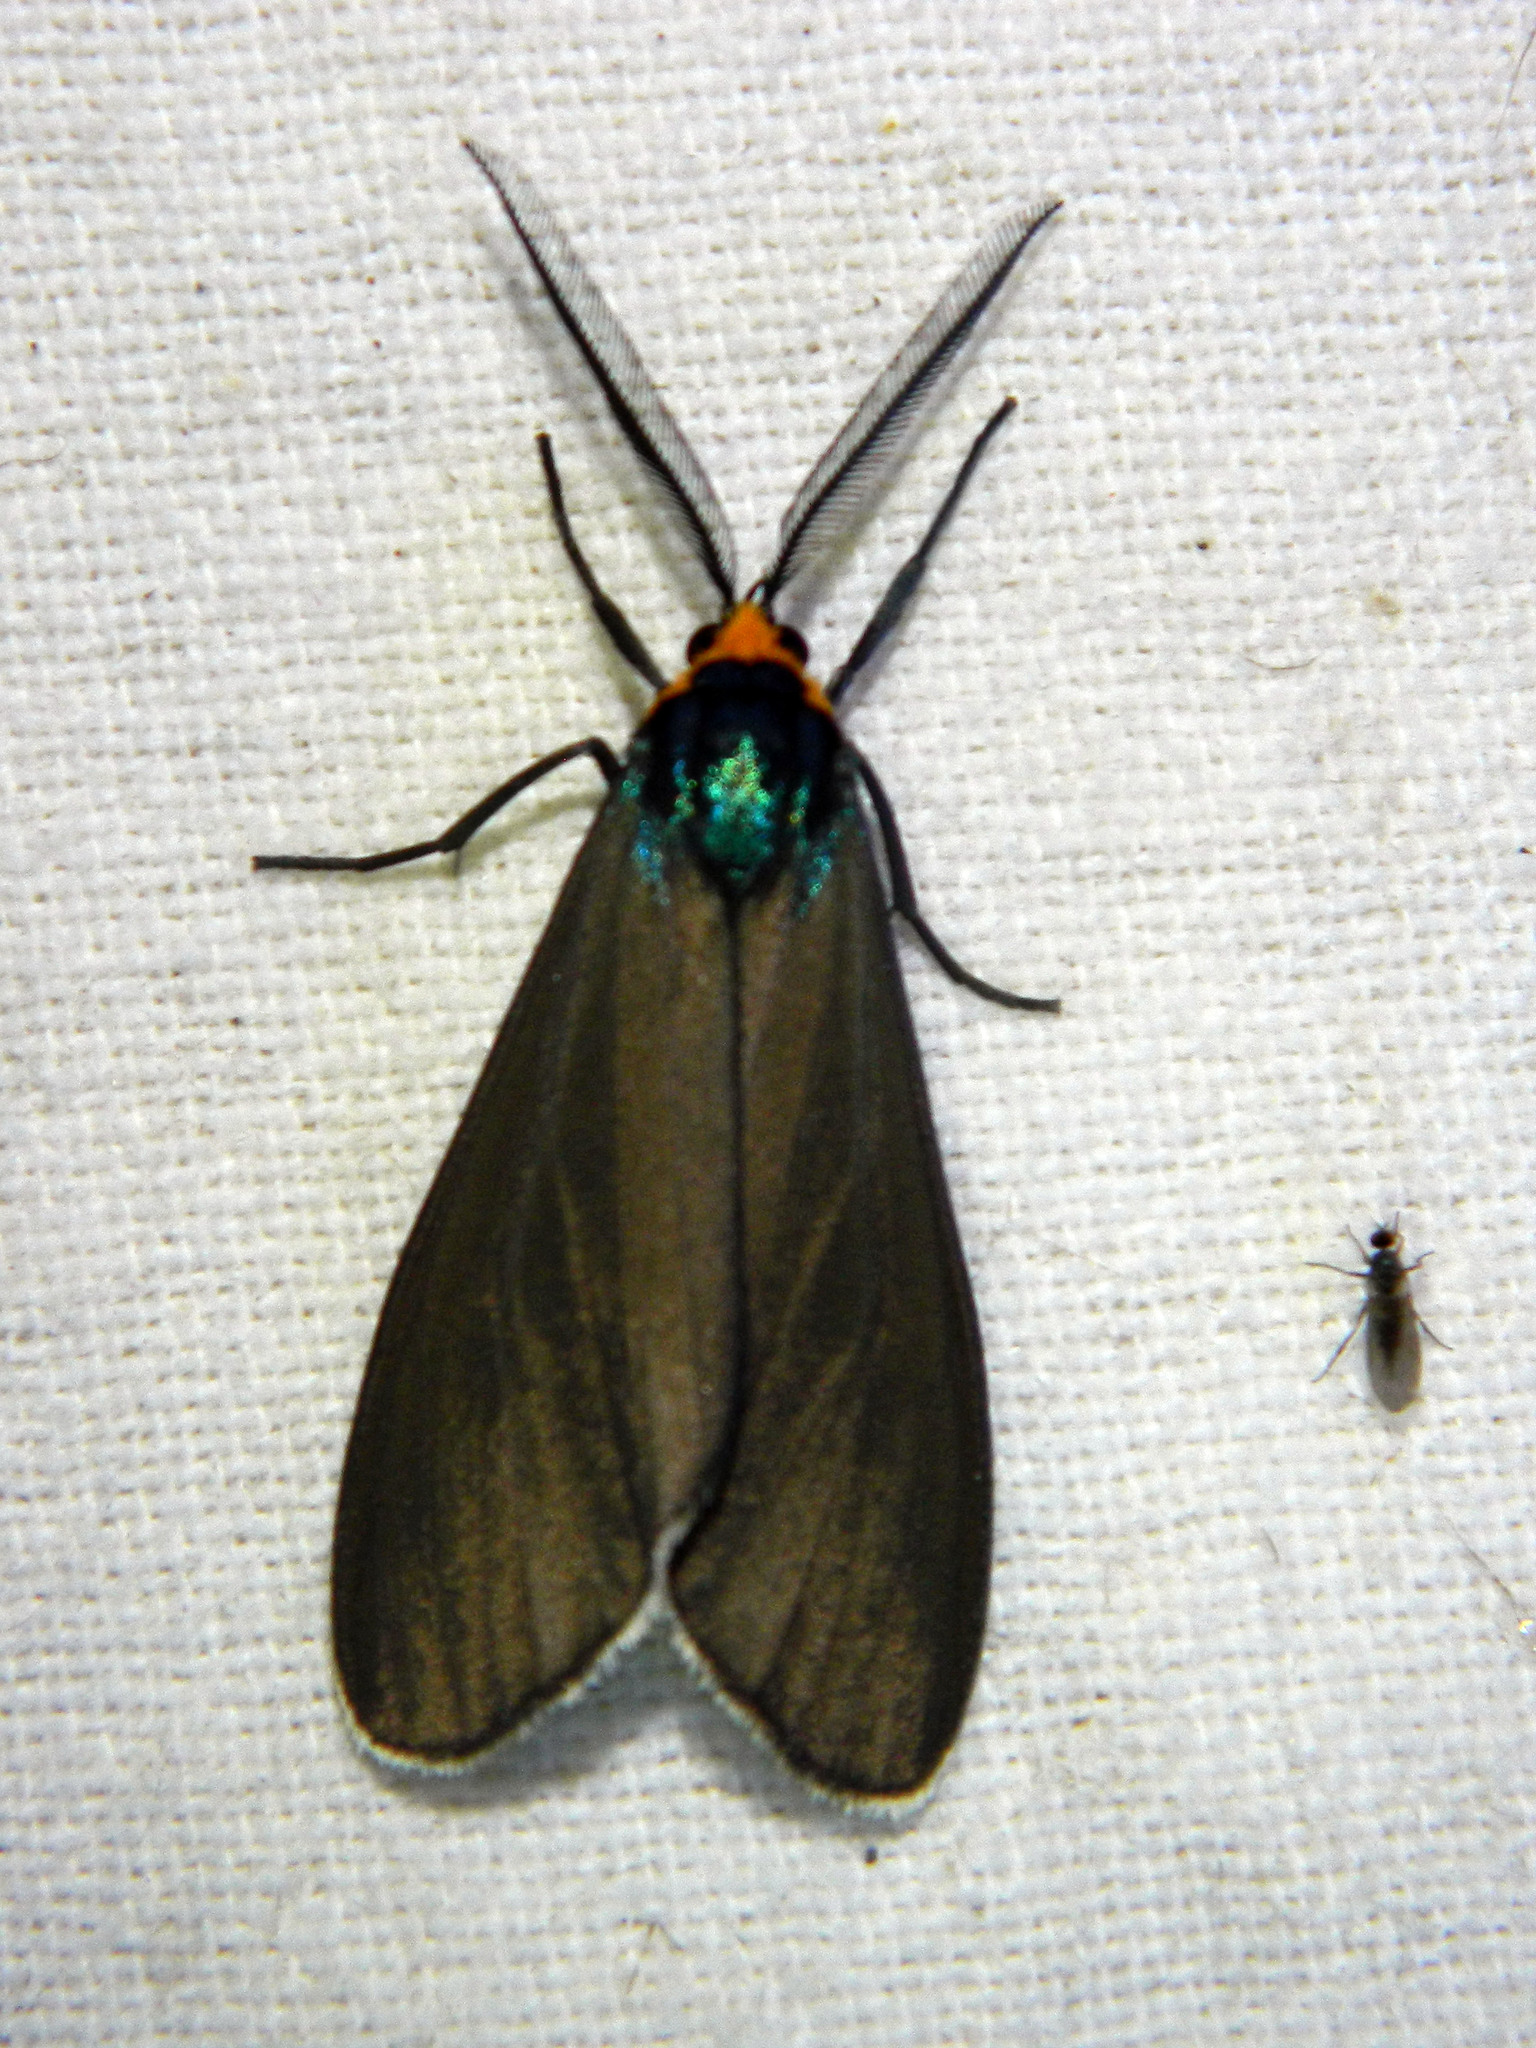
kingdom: Animalia
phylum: Arthropoda
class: Insecta
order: Lepidoptera
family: Erebidae
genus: Ctenucha
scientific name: Ctenucha virginica
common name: Virginia ctenucha moth
